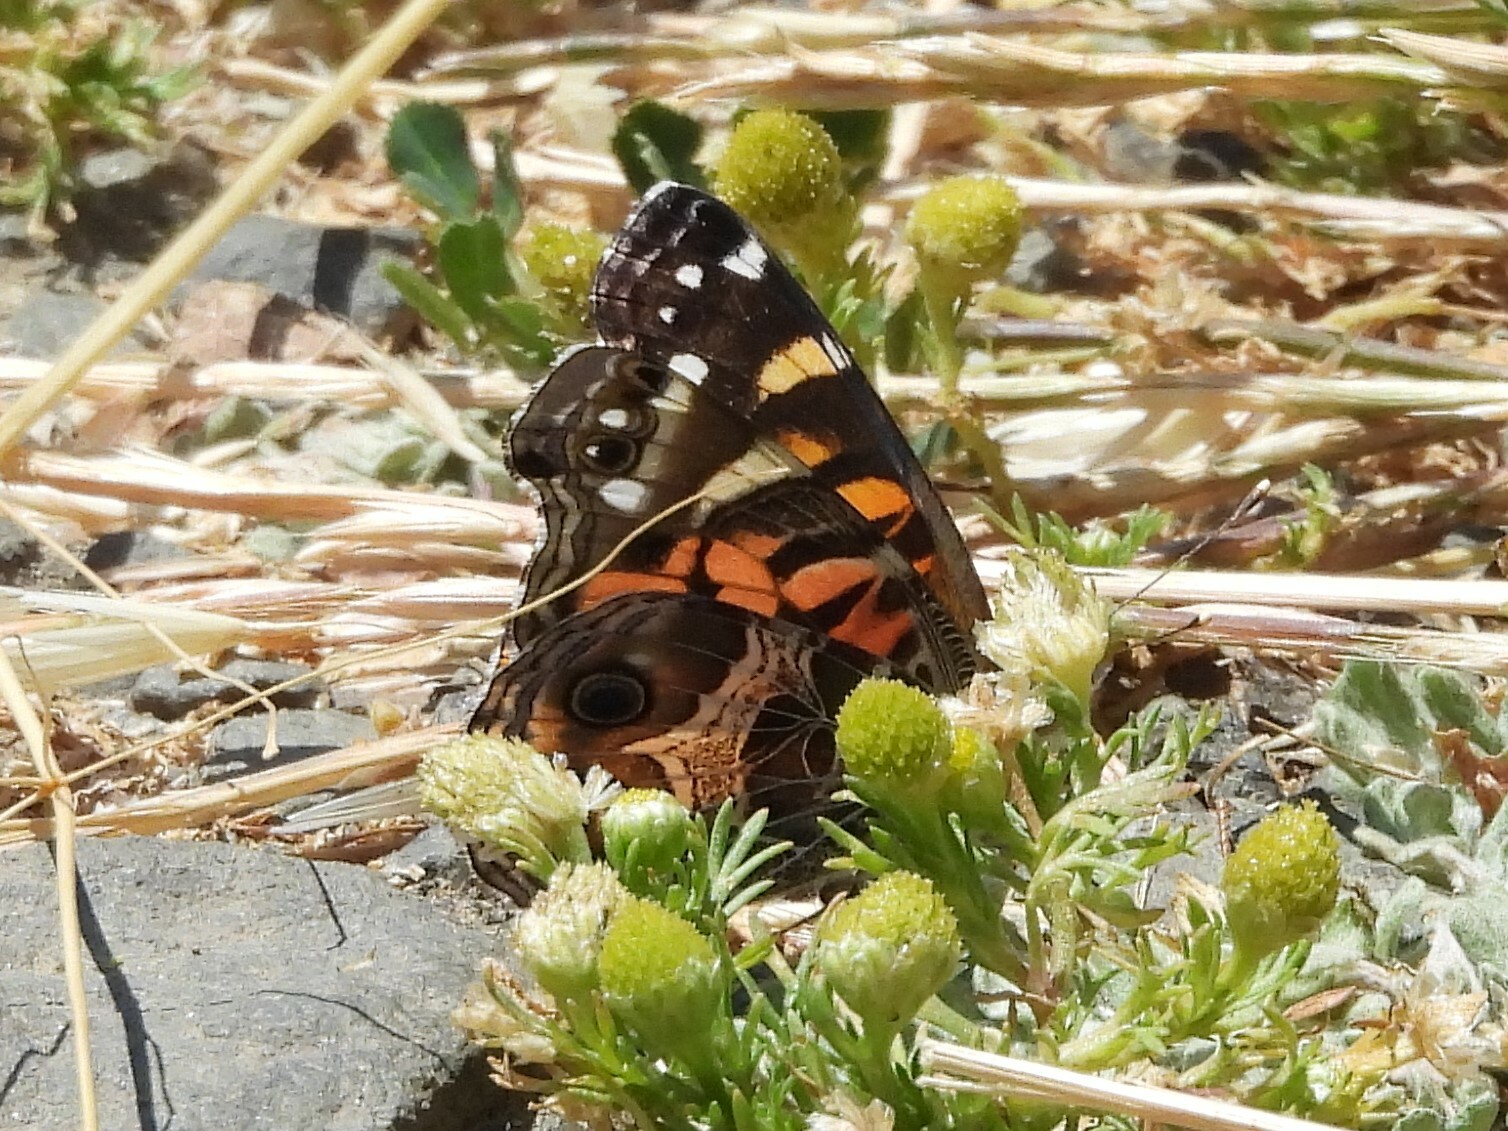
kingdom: Animalia
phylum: Arthropoda
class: Insecta
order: Lepidoptera
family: Nymphalidae
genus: Vanessa
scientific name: Vanessa virginiensis
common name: American lady
